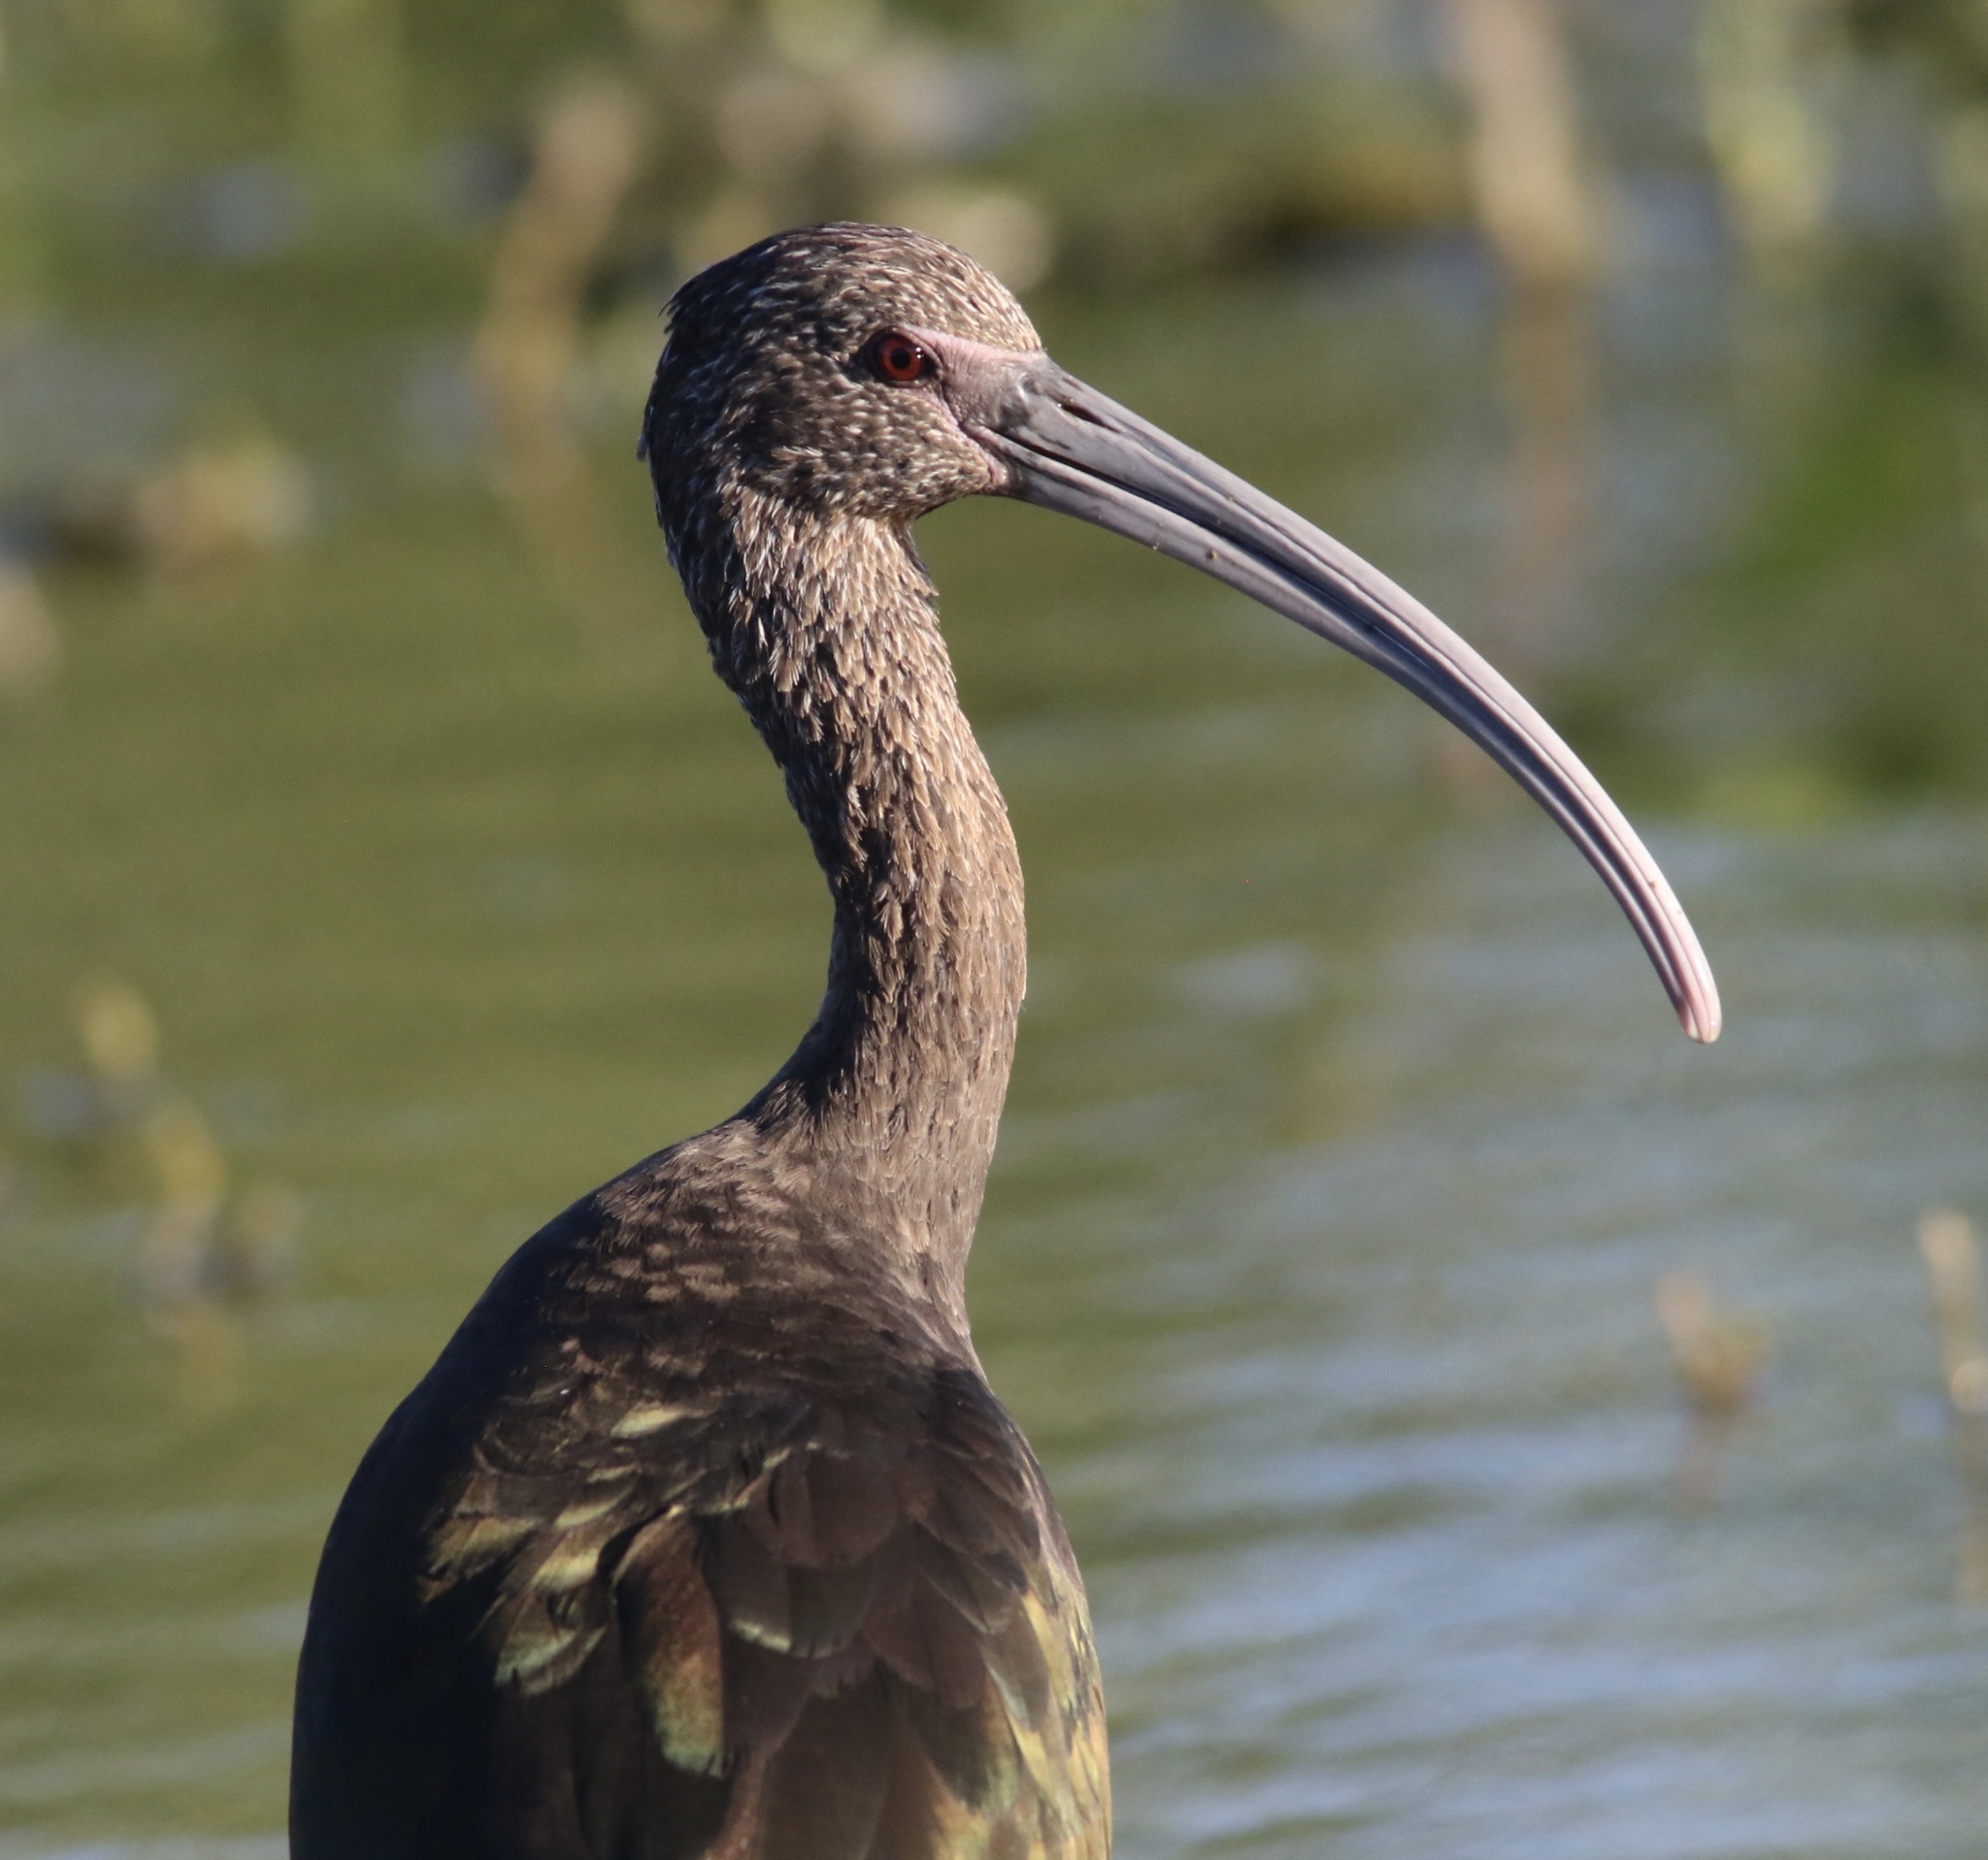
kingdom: Animalia
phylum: Chordata
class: Aves
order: Pelecaniformes
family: Threskiornithidae
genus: Plegadis
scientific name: Plegadis chihi
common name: White-faced ibis
